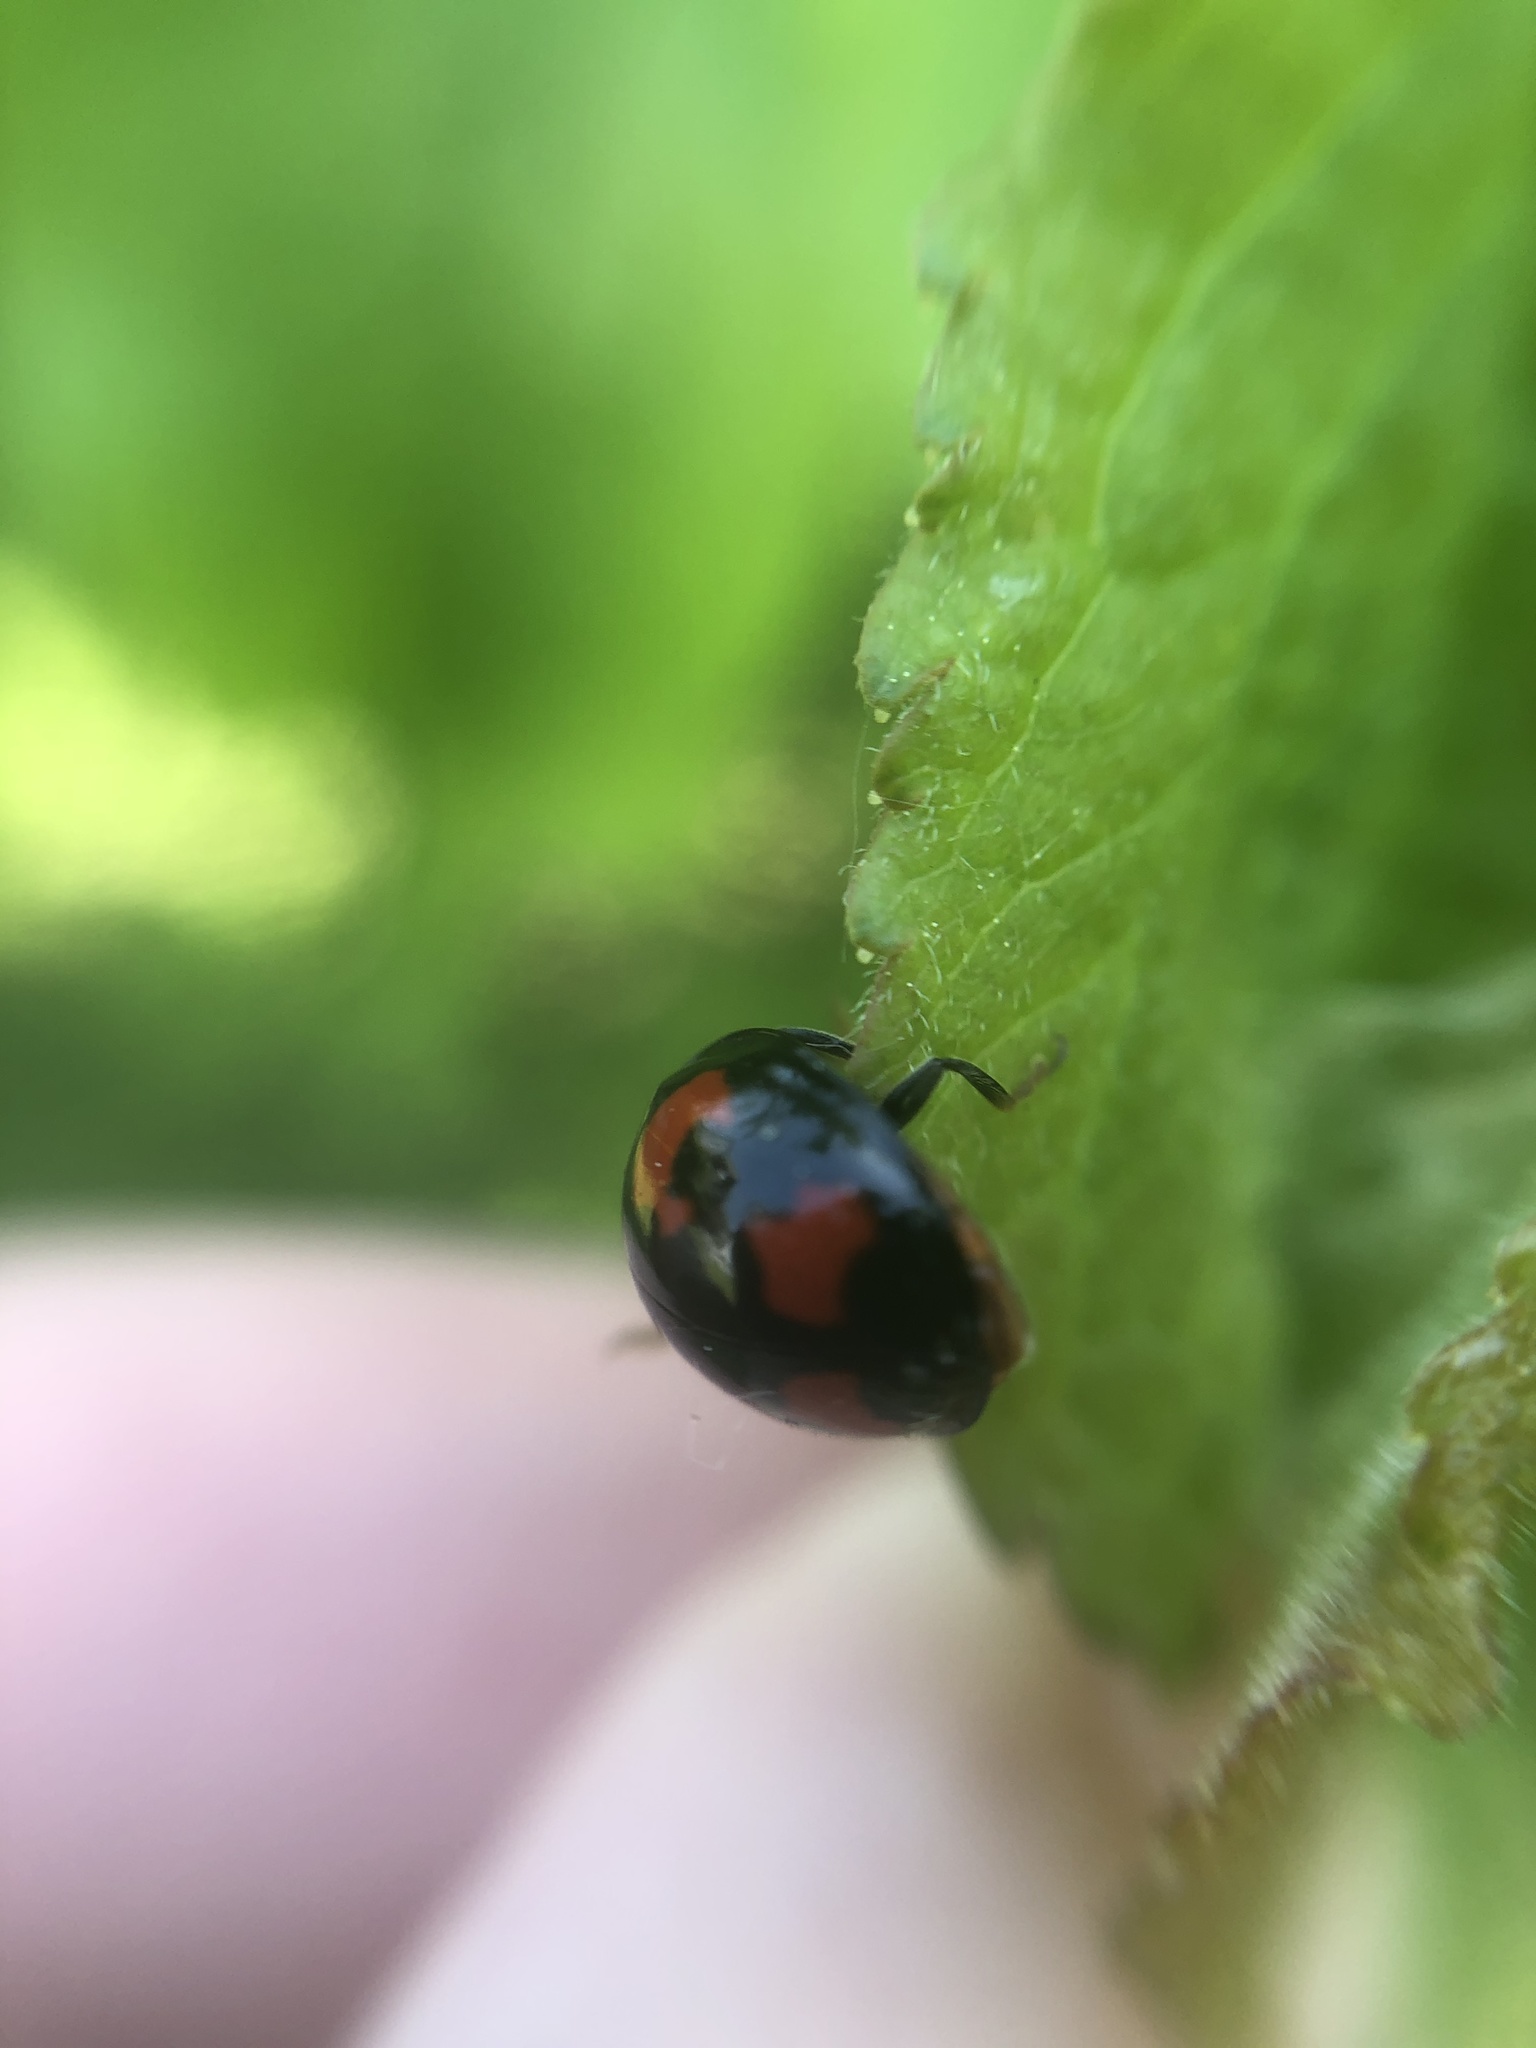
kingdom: Animalia
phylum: Arthropoda
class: Insecta
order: Coleoptera
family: Coccinellidae
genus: Harmonia
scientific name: Harmonia axyridis
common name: Harlequin ladybird
